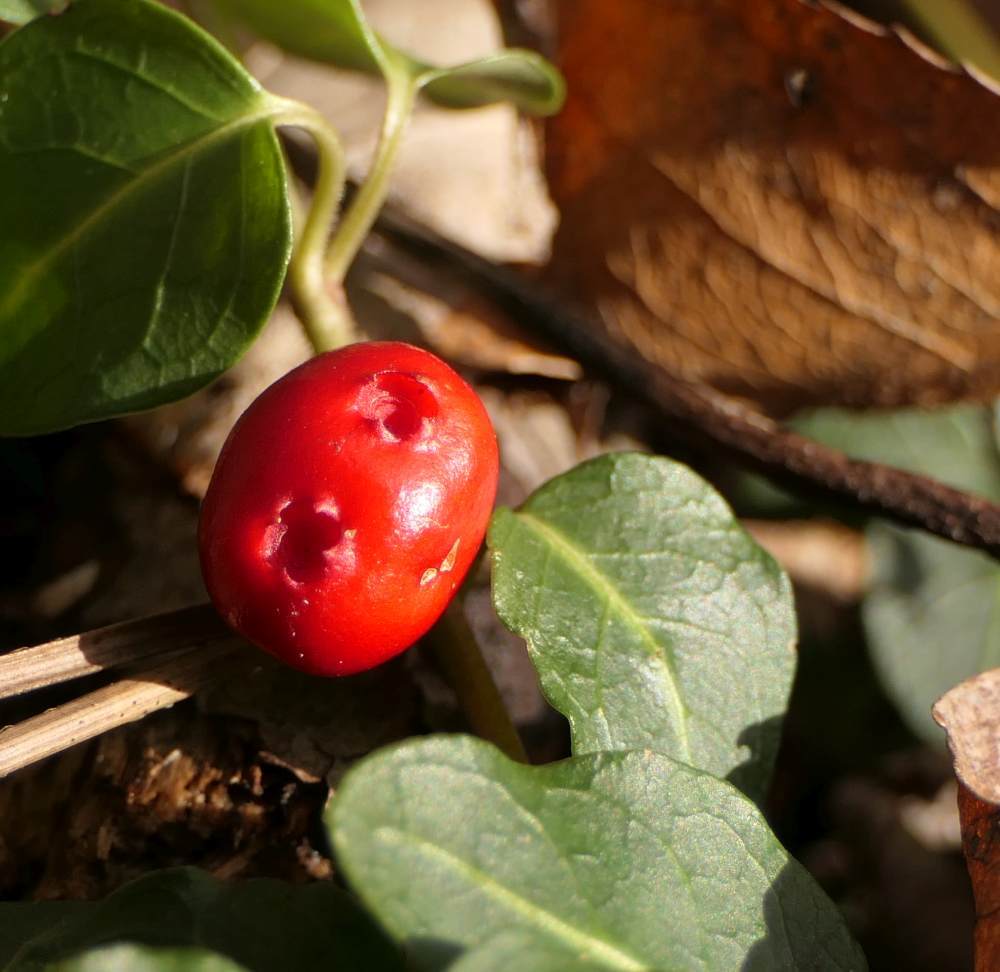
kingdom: Plantae
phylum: Tracheophyta
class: Magnoliopsida
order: Gentianales
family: Rubiaceae
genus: Mitchella
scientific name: Mitchella repens
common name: Partridge-berry
